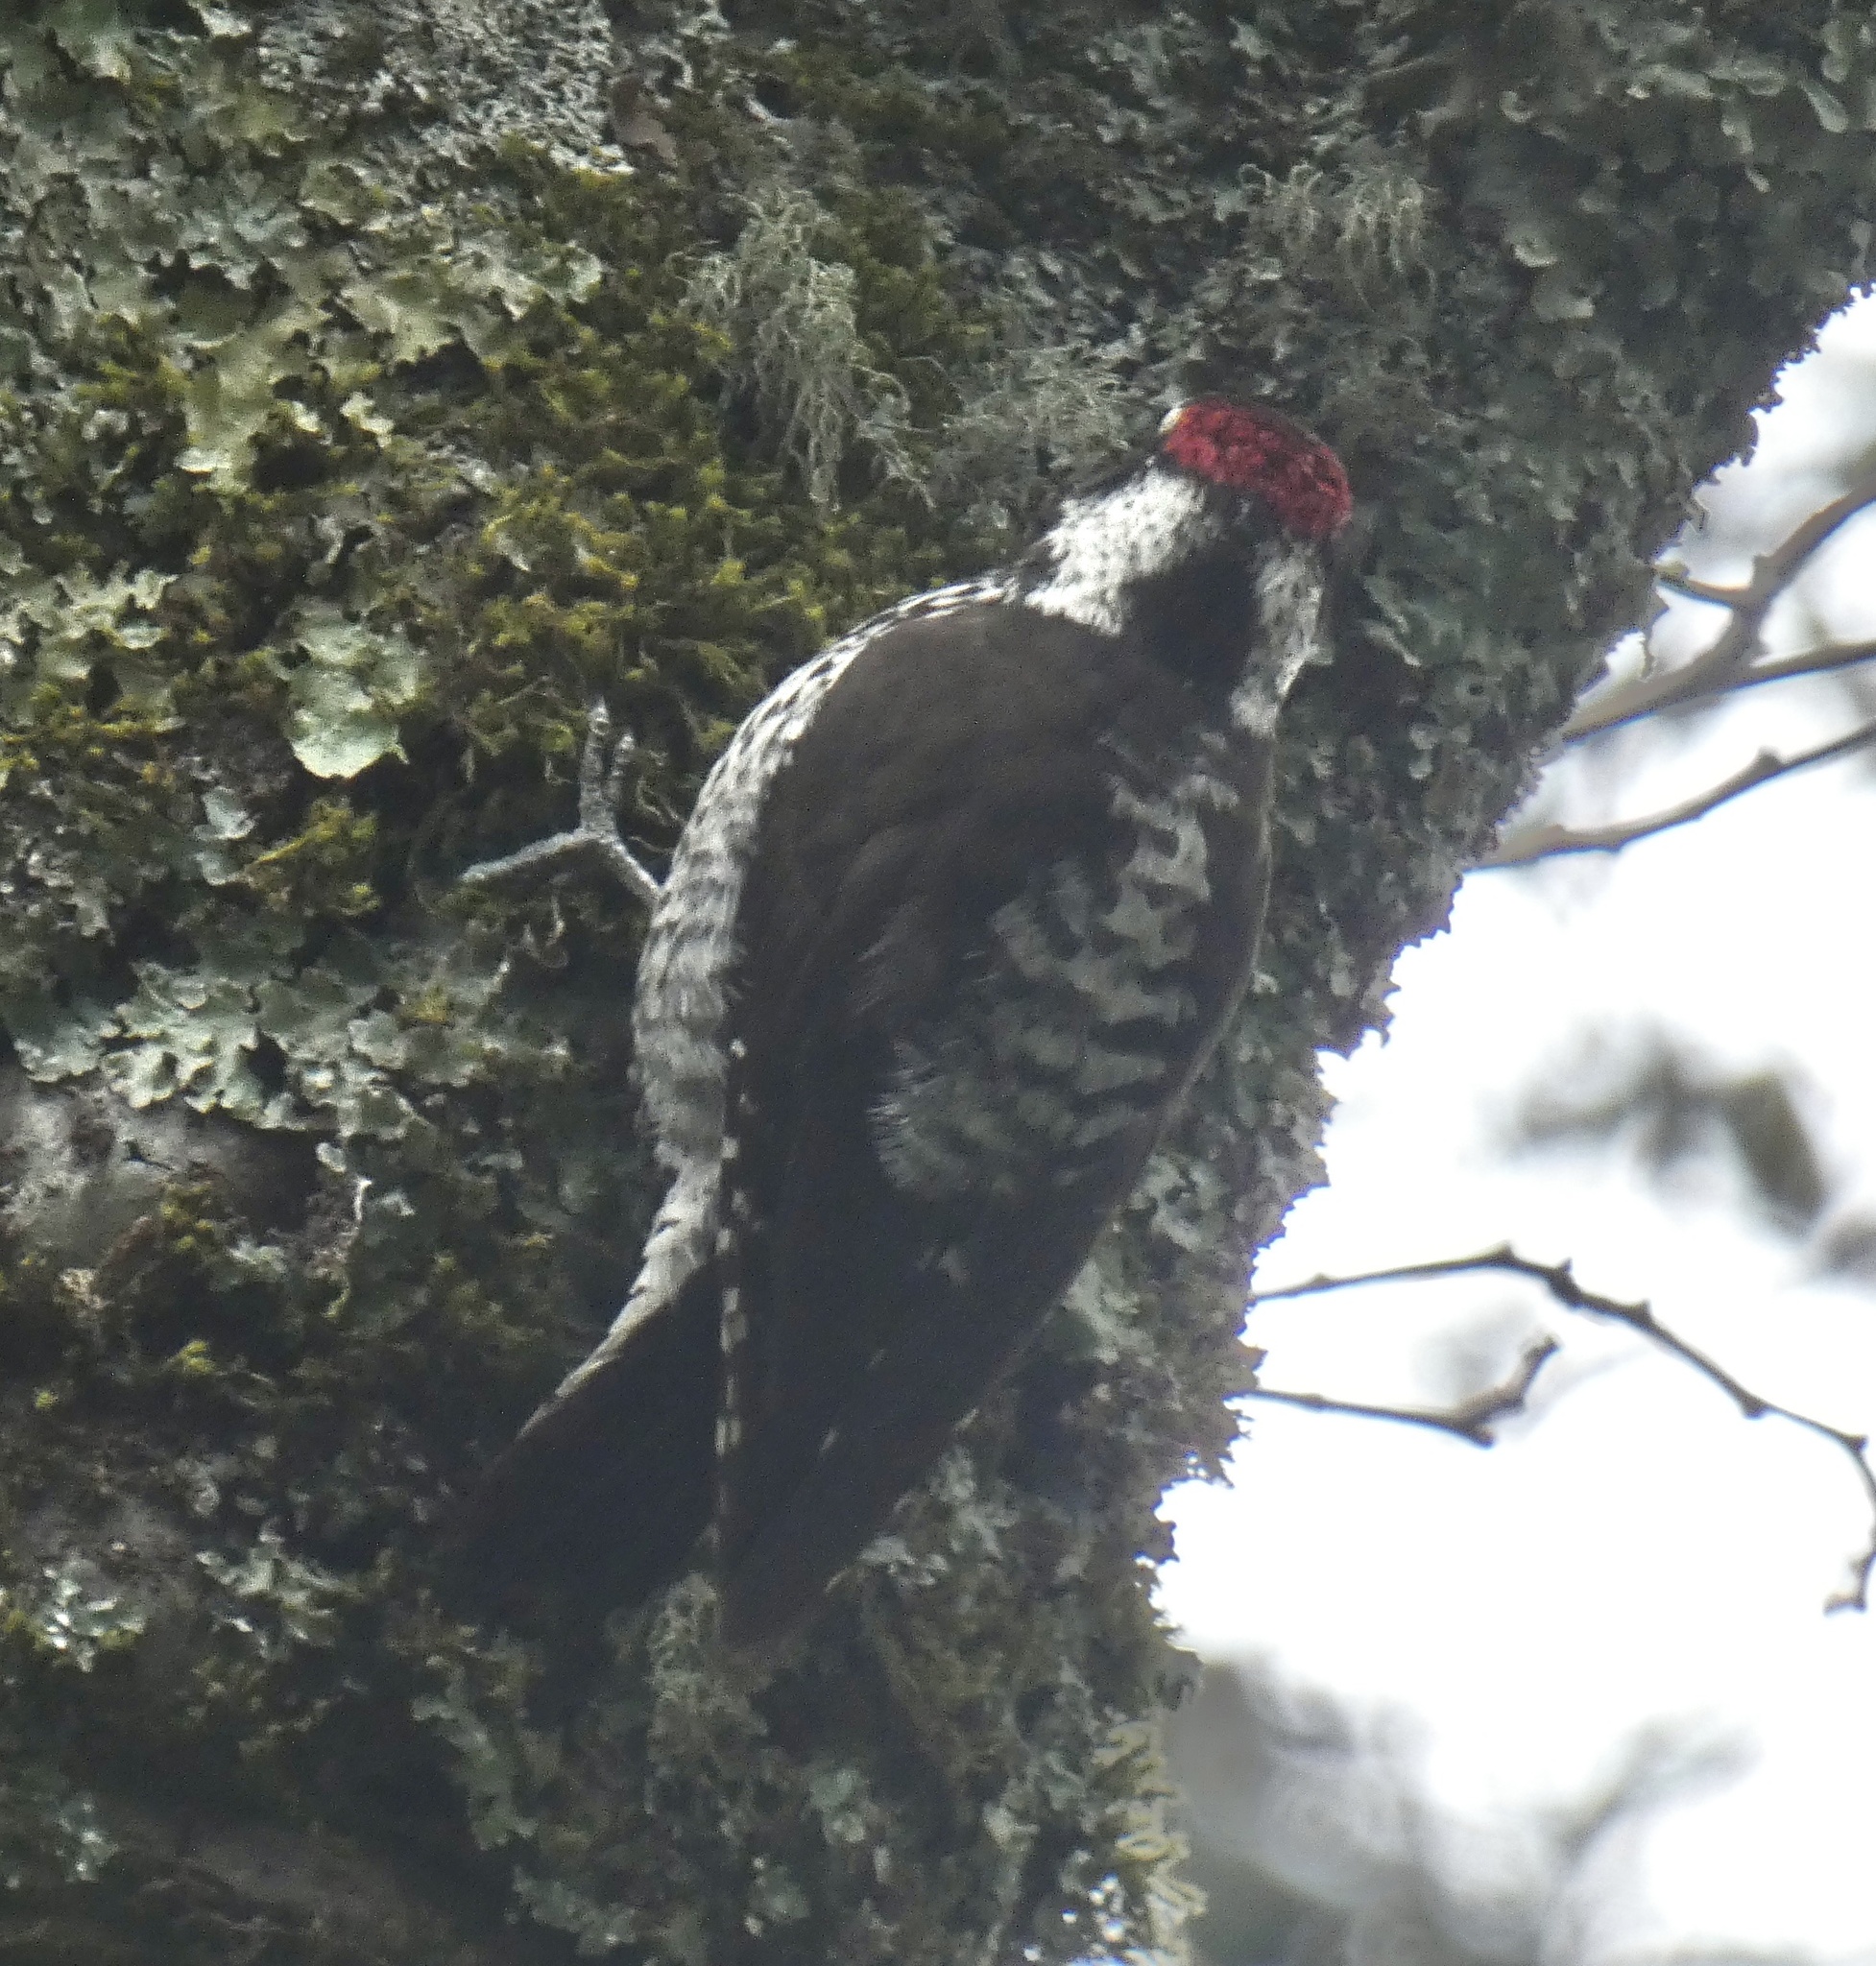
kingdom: Animalia
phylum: Chordata
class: Aves
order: Piciformes
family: Picidae
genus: Leuconotopicus
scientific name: Leuconotopicus stricklandi
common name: Strickland's woodpecker
